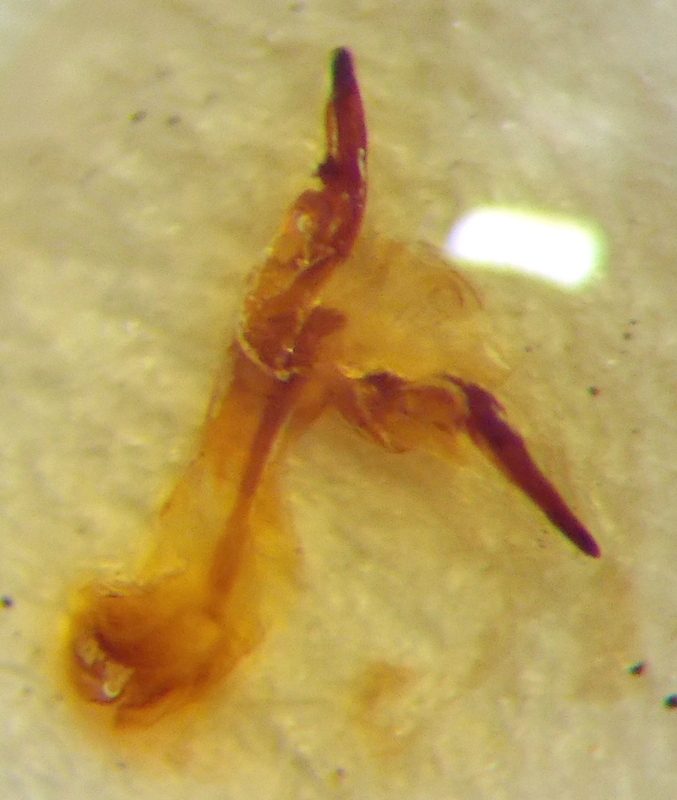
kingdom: Animalia
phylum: Arthropoda
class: Insecta
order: Hemiptera
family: Scutelleridae
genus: Eurygaster
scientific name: Eurygaster maura
